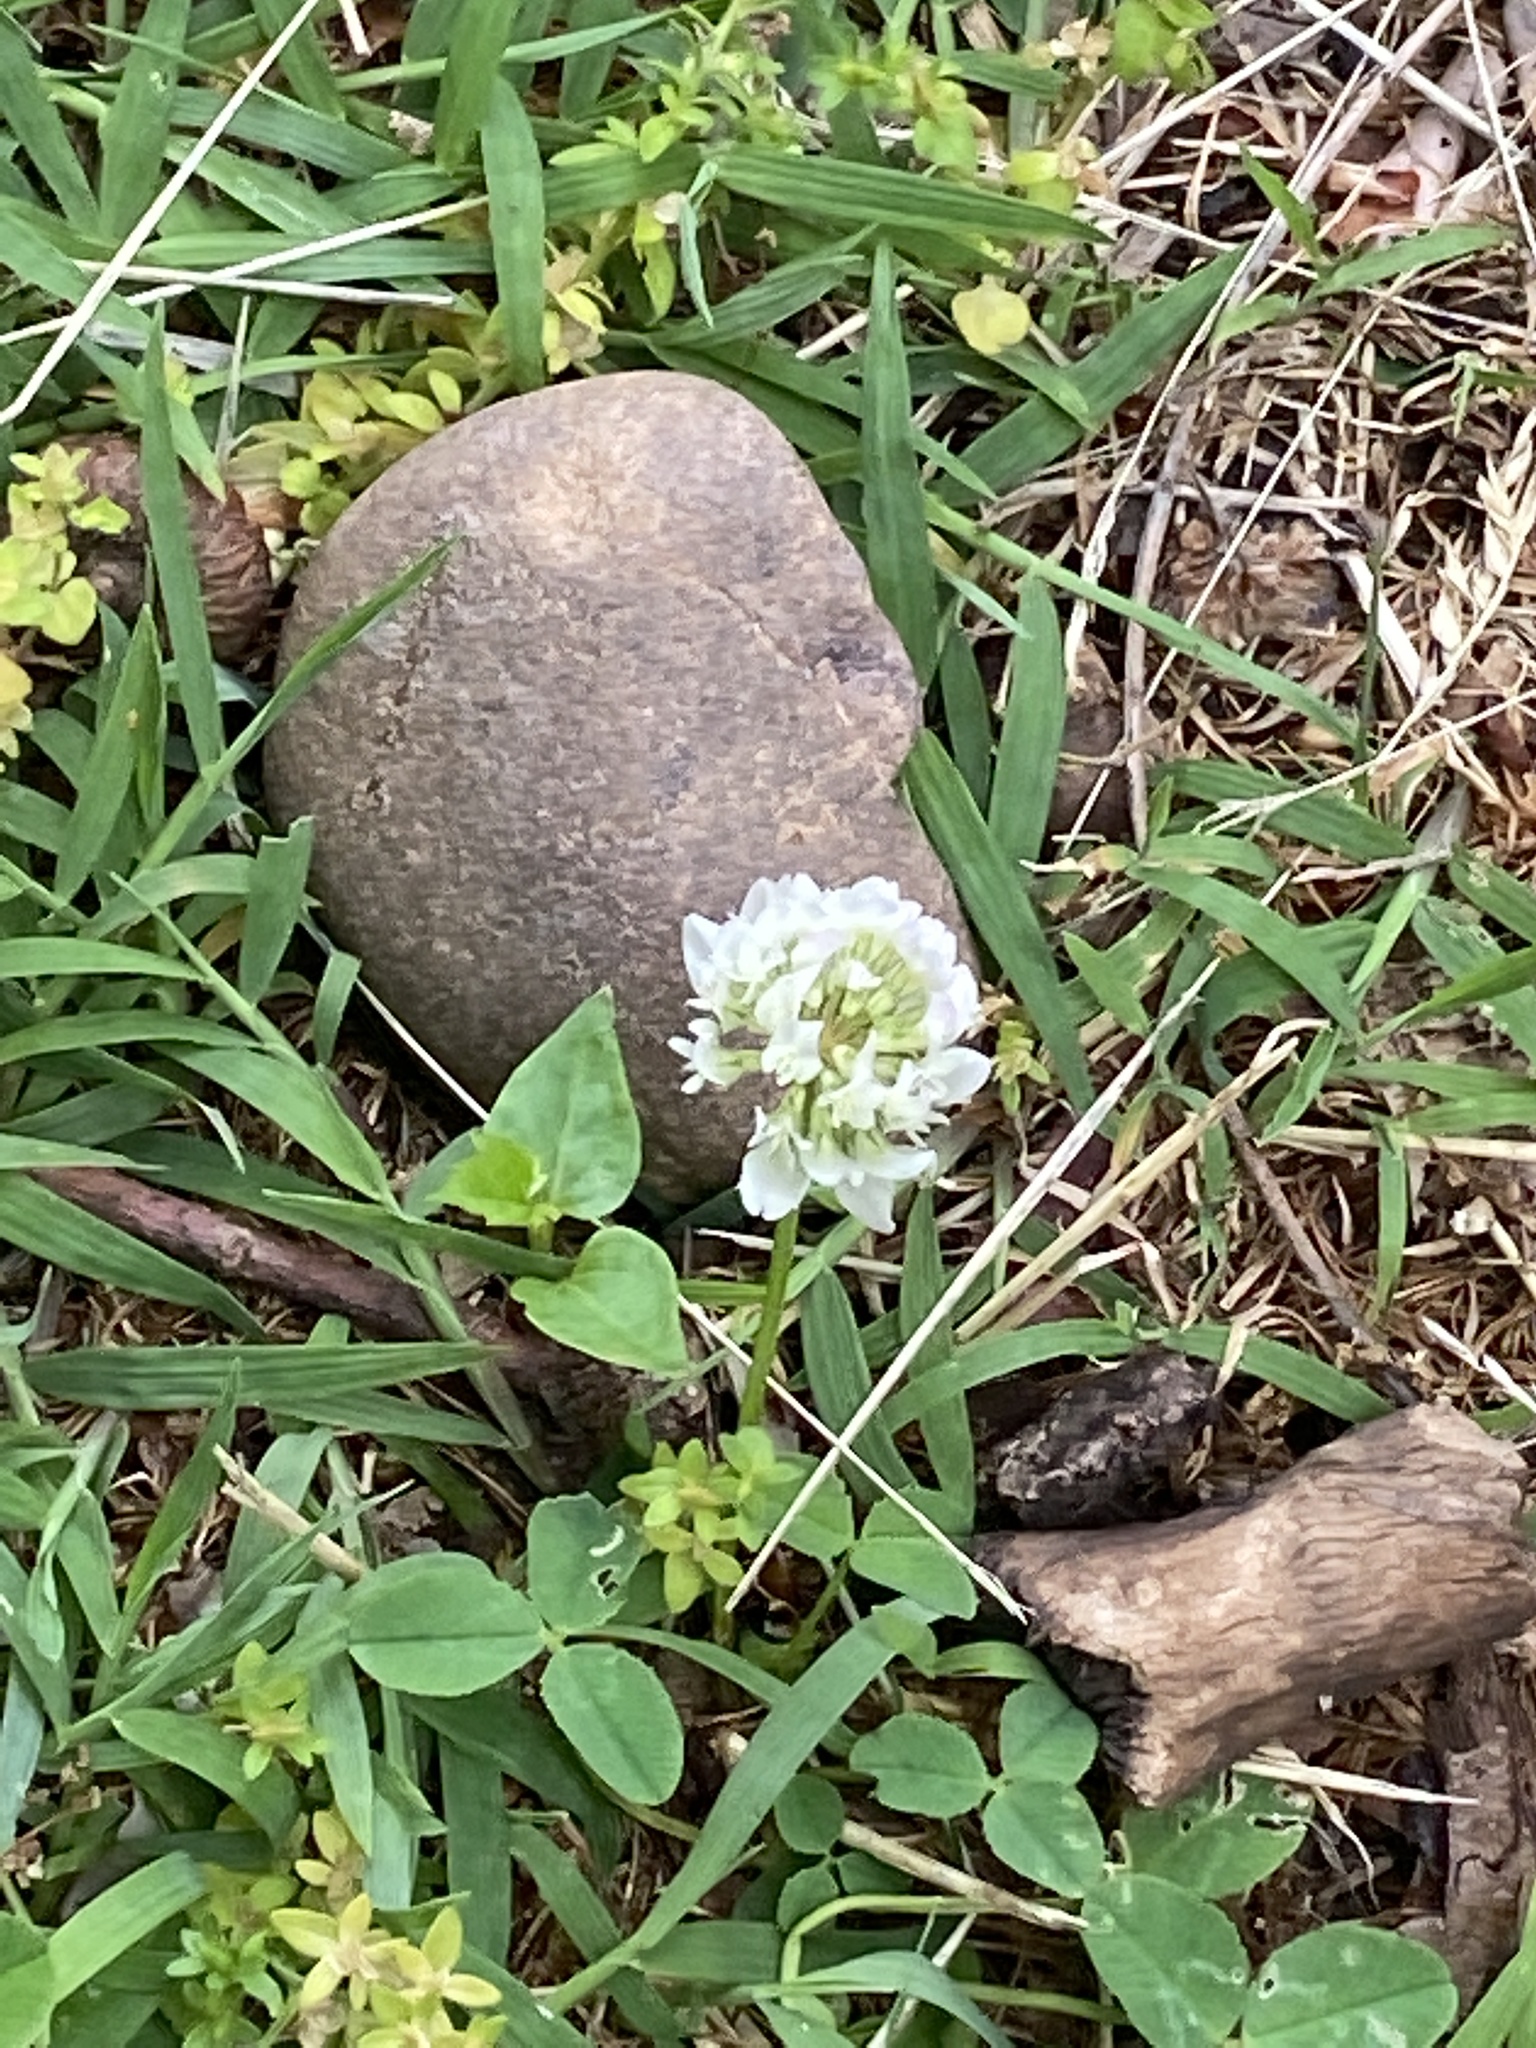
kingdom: Plantae
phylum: Tracheophyta
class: Magnoliopsida
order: Fabales
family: Fabaceae
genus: Trifolium
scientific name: Trifolium repens
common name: White clover
